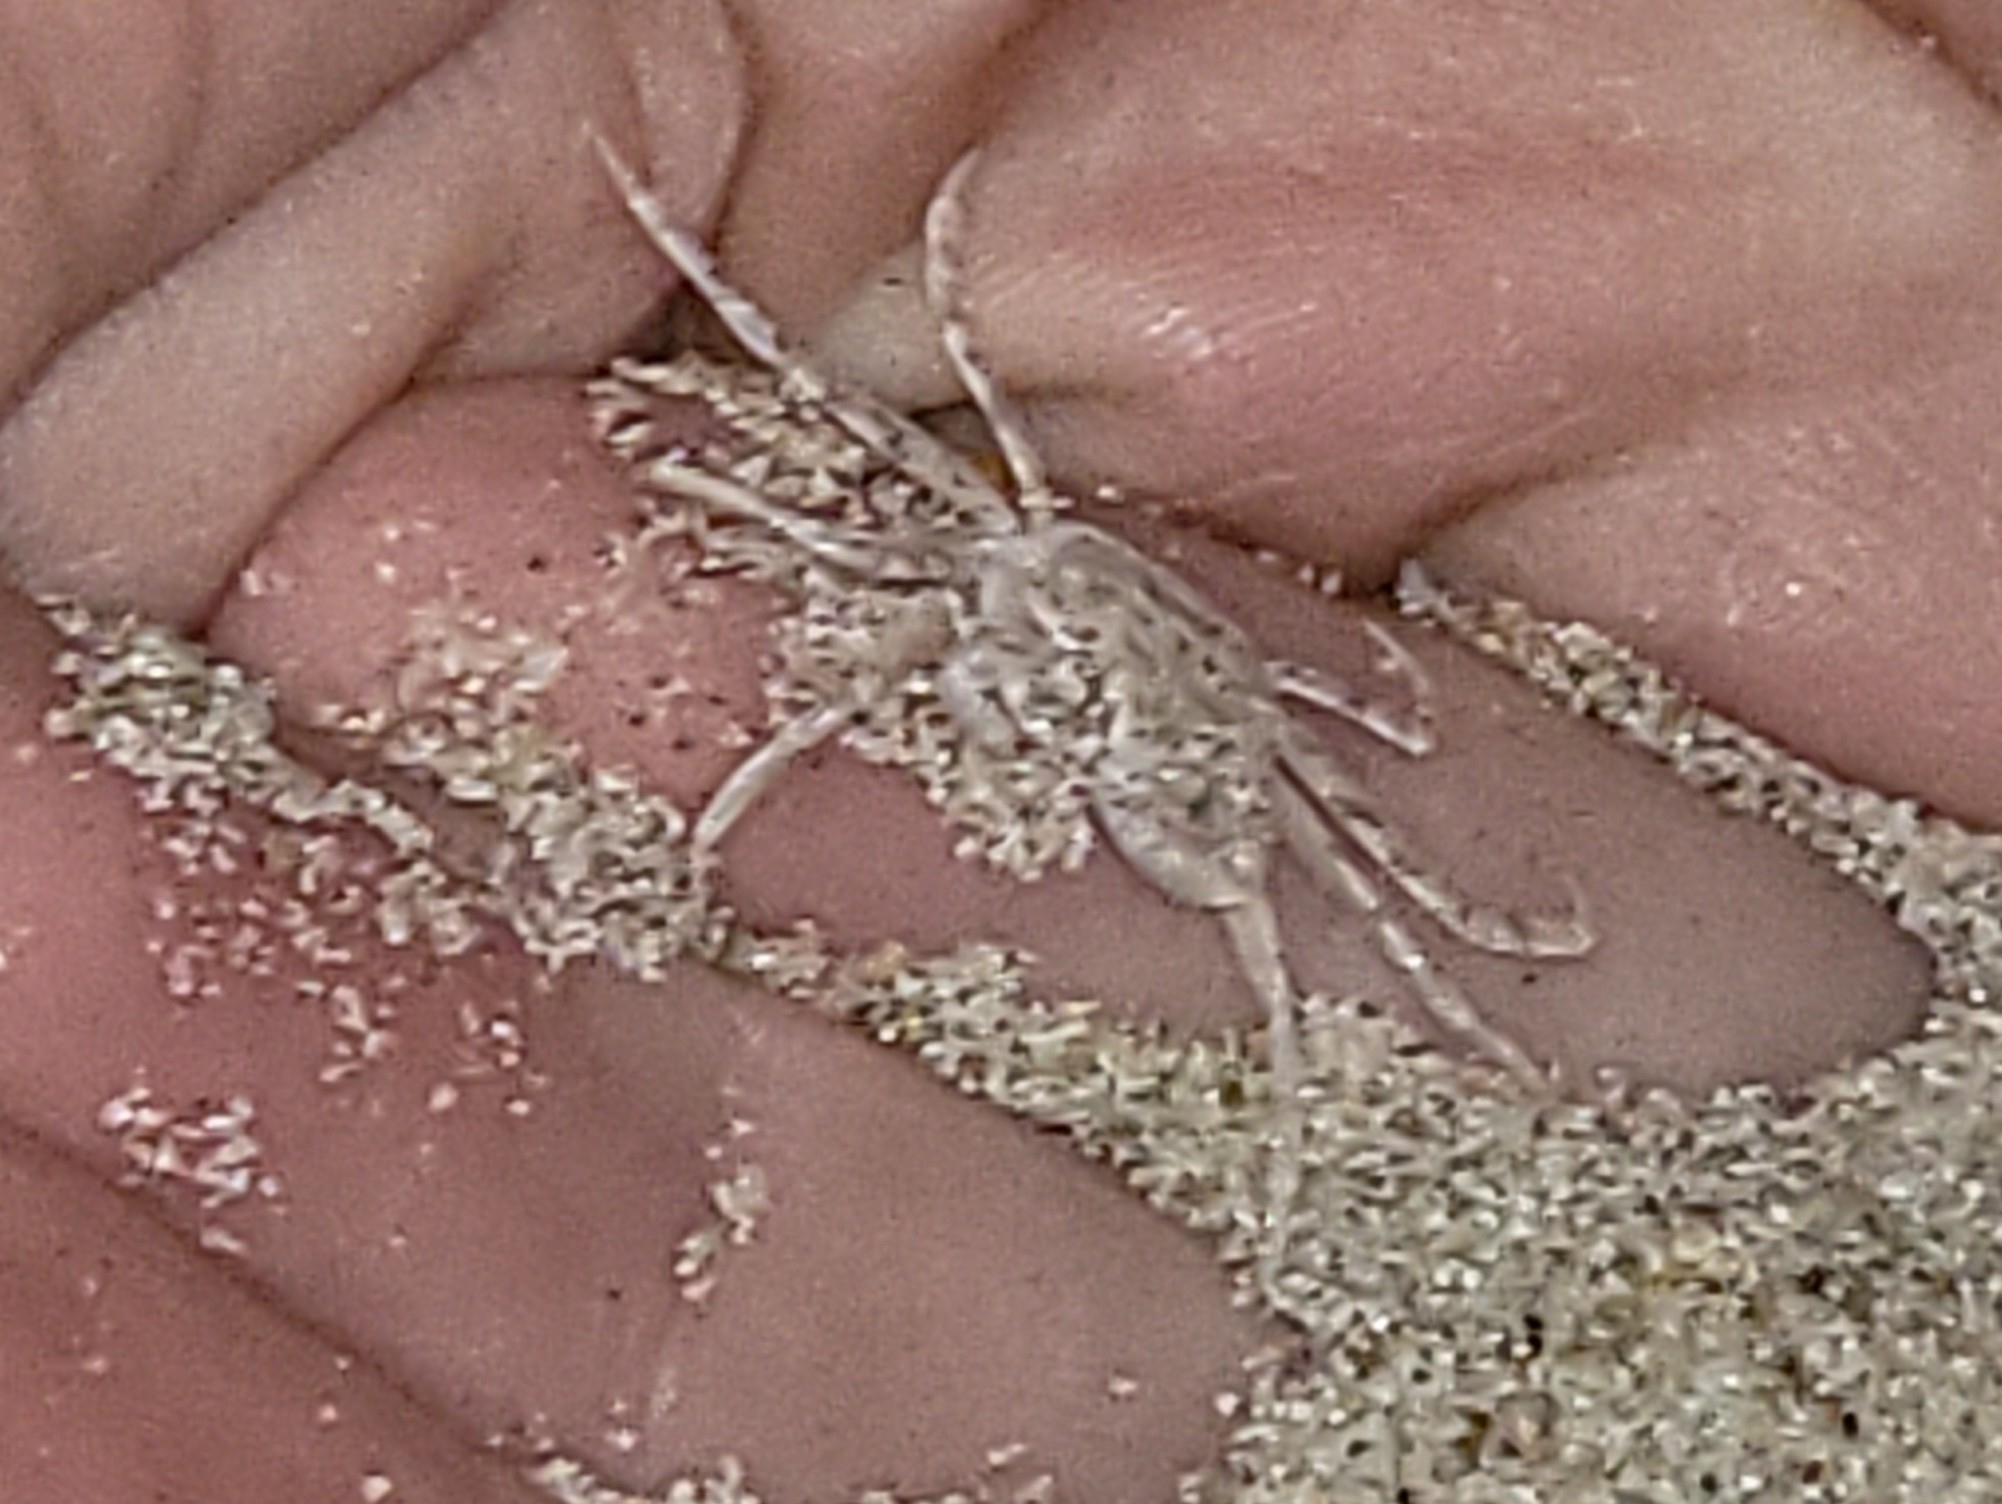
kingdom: Animalia
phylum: Arthropoda
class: Malacostraca
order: Decapoda
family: Ocypodidae
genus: Ocypode
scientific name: Ocypode quadrata
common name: Ghost crab
